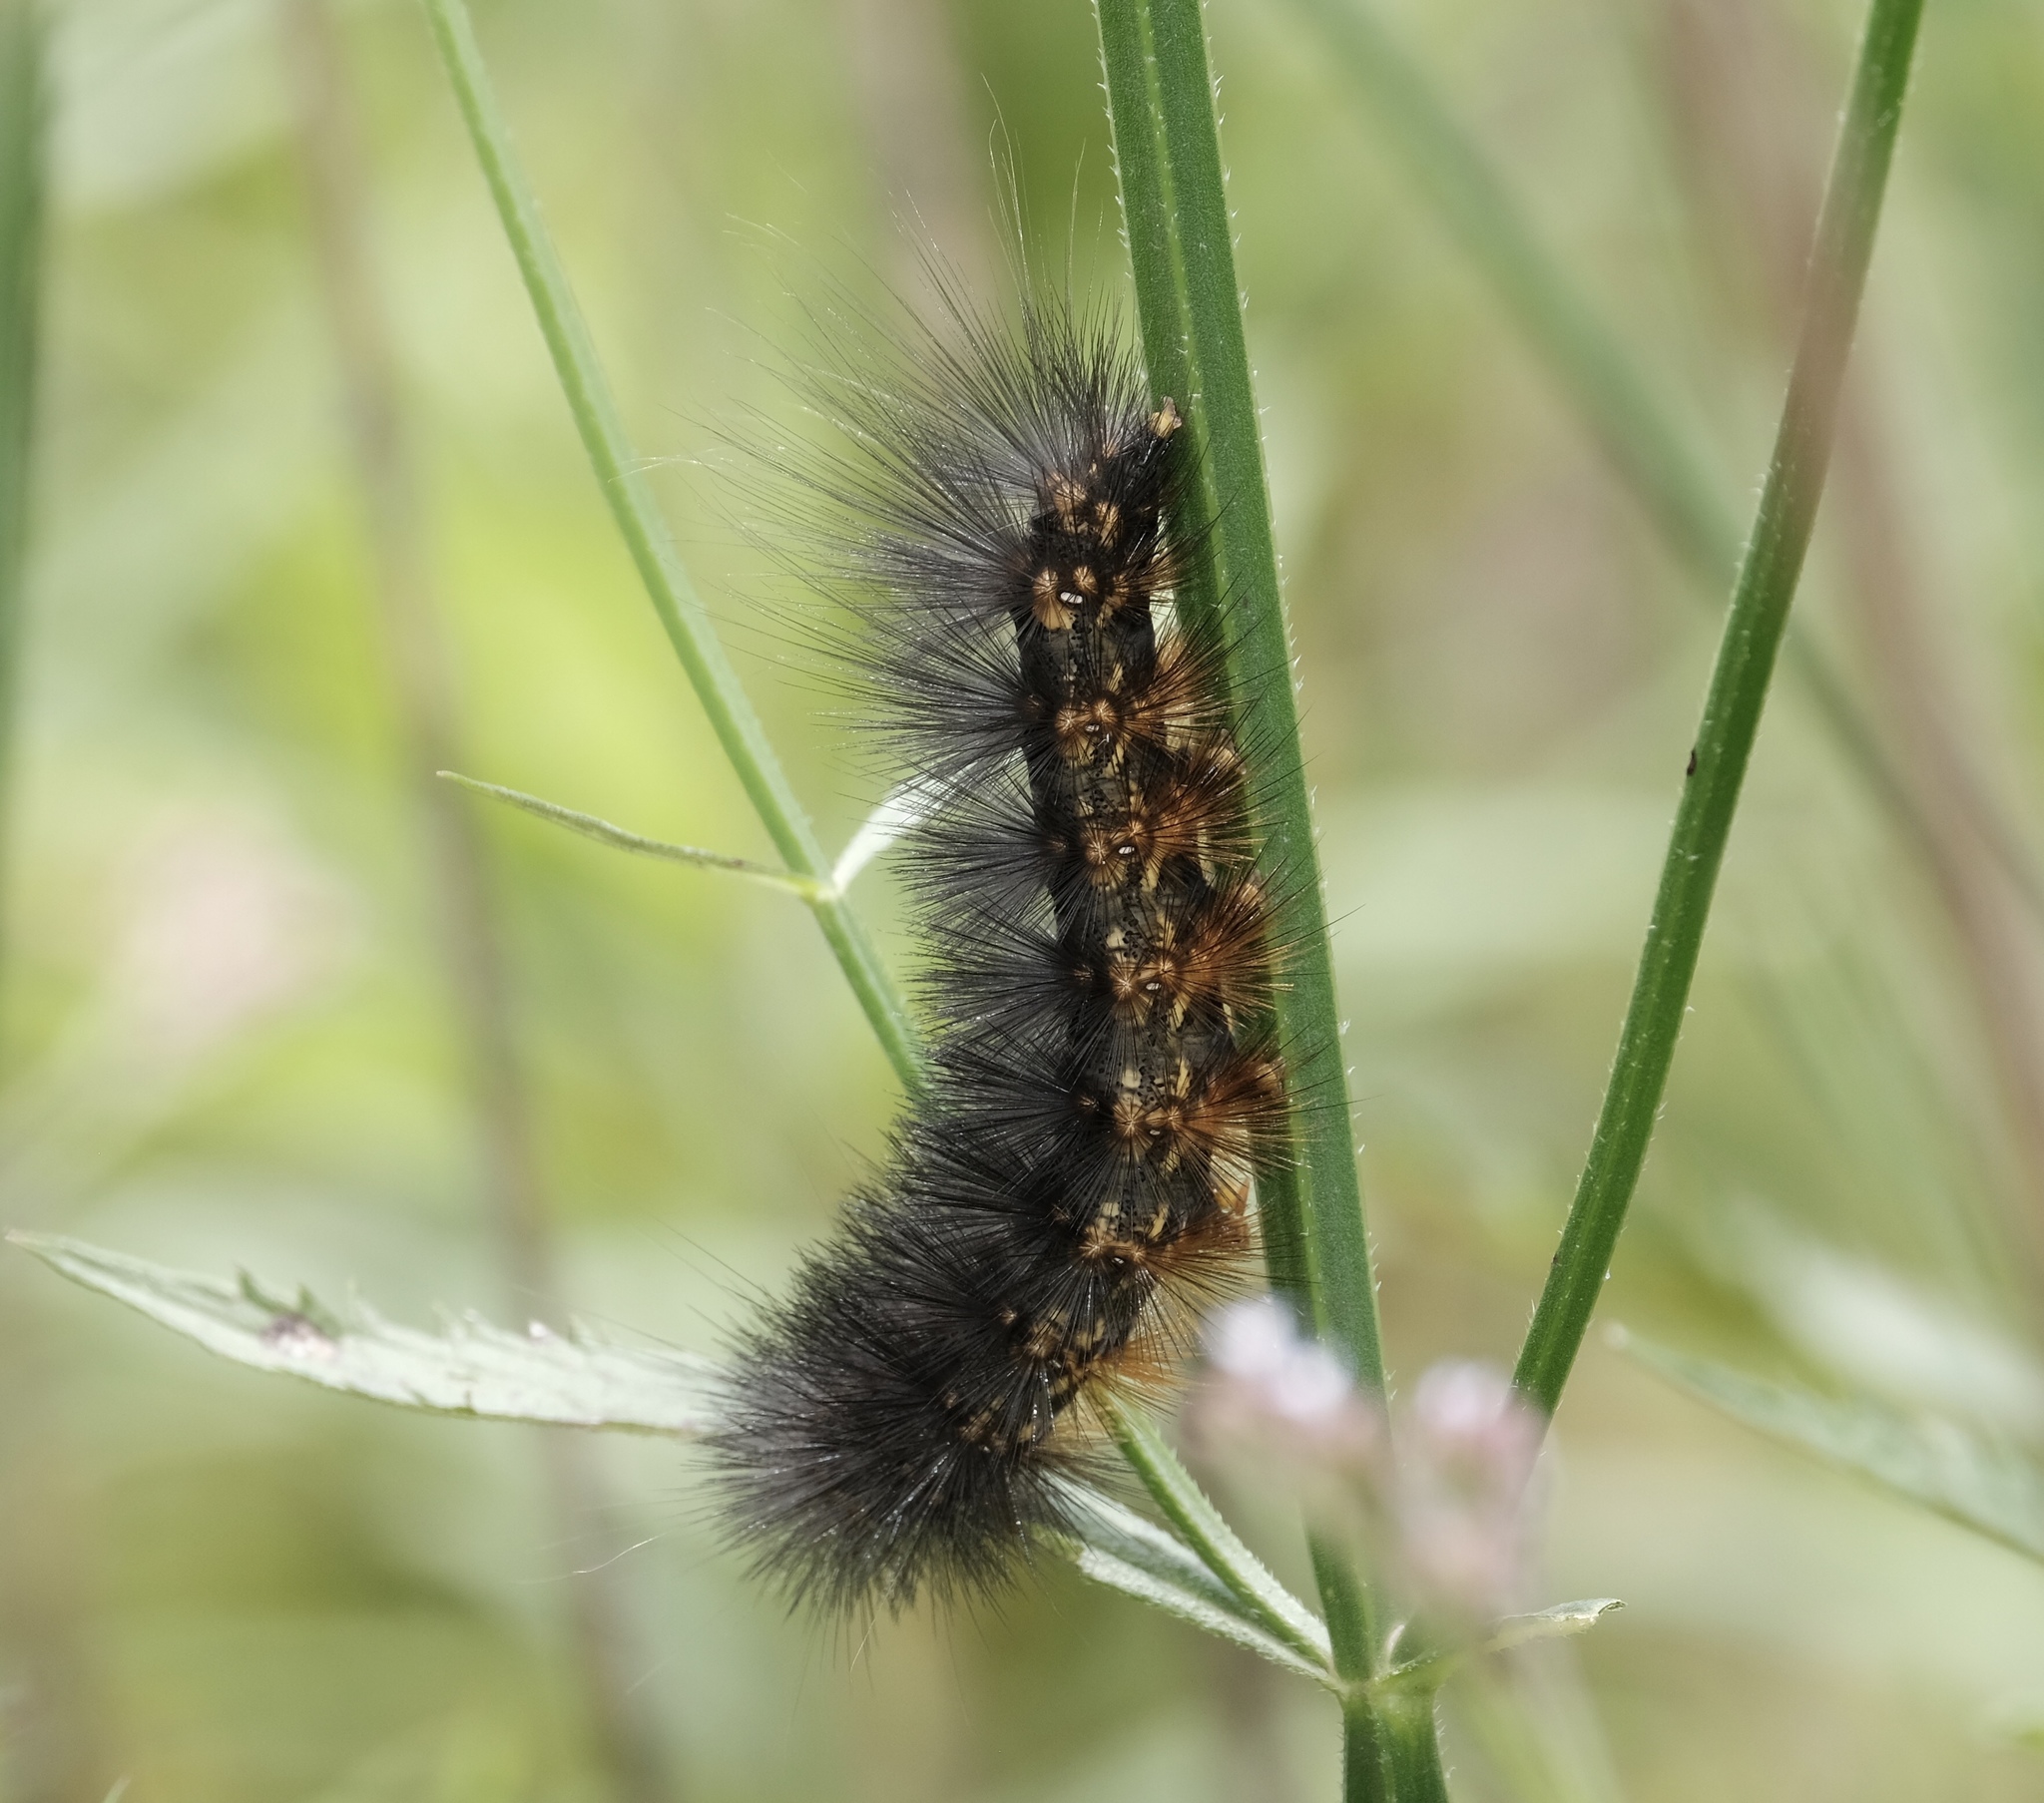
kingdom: Animalia
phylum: Arthropoda
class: Insecta
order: Lepidoptera
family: Erebidae
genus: Estigmene
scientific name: Estigmene acrea
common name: Salt marsh moth
